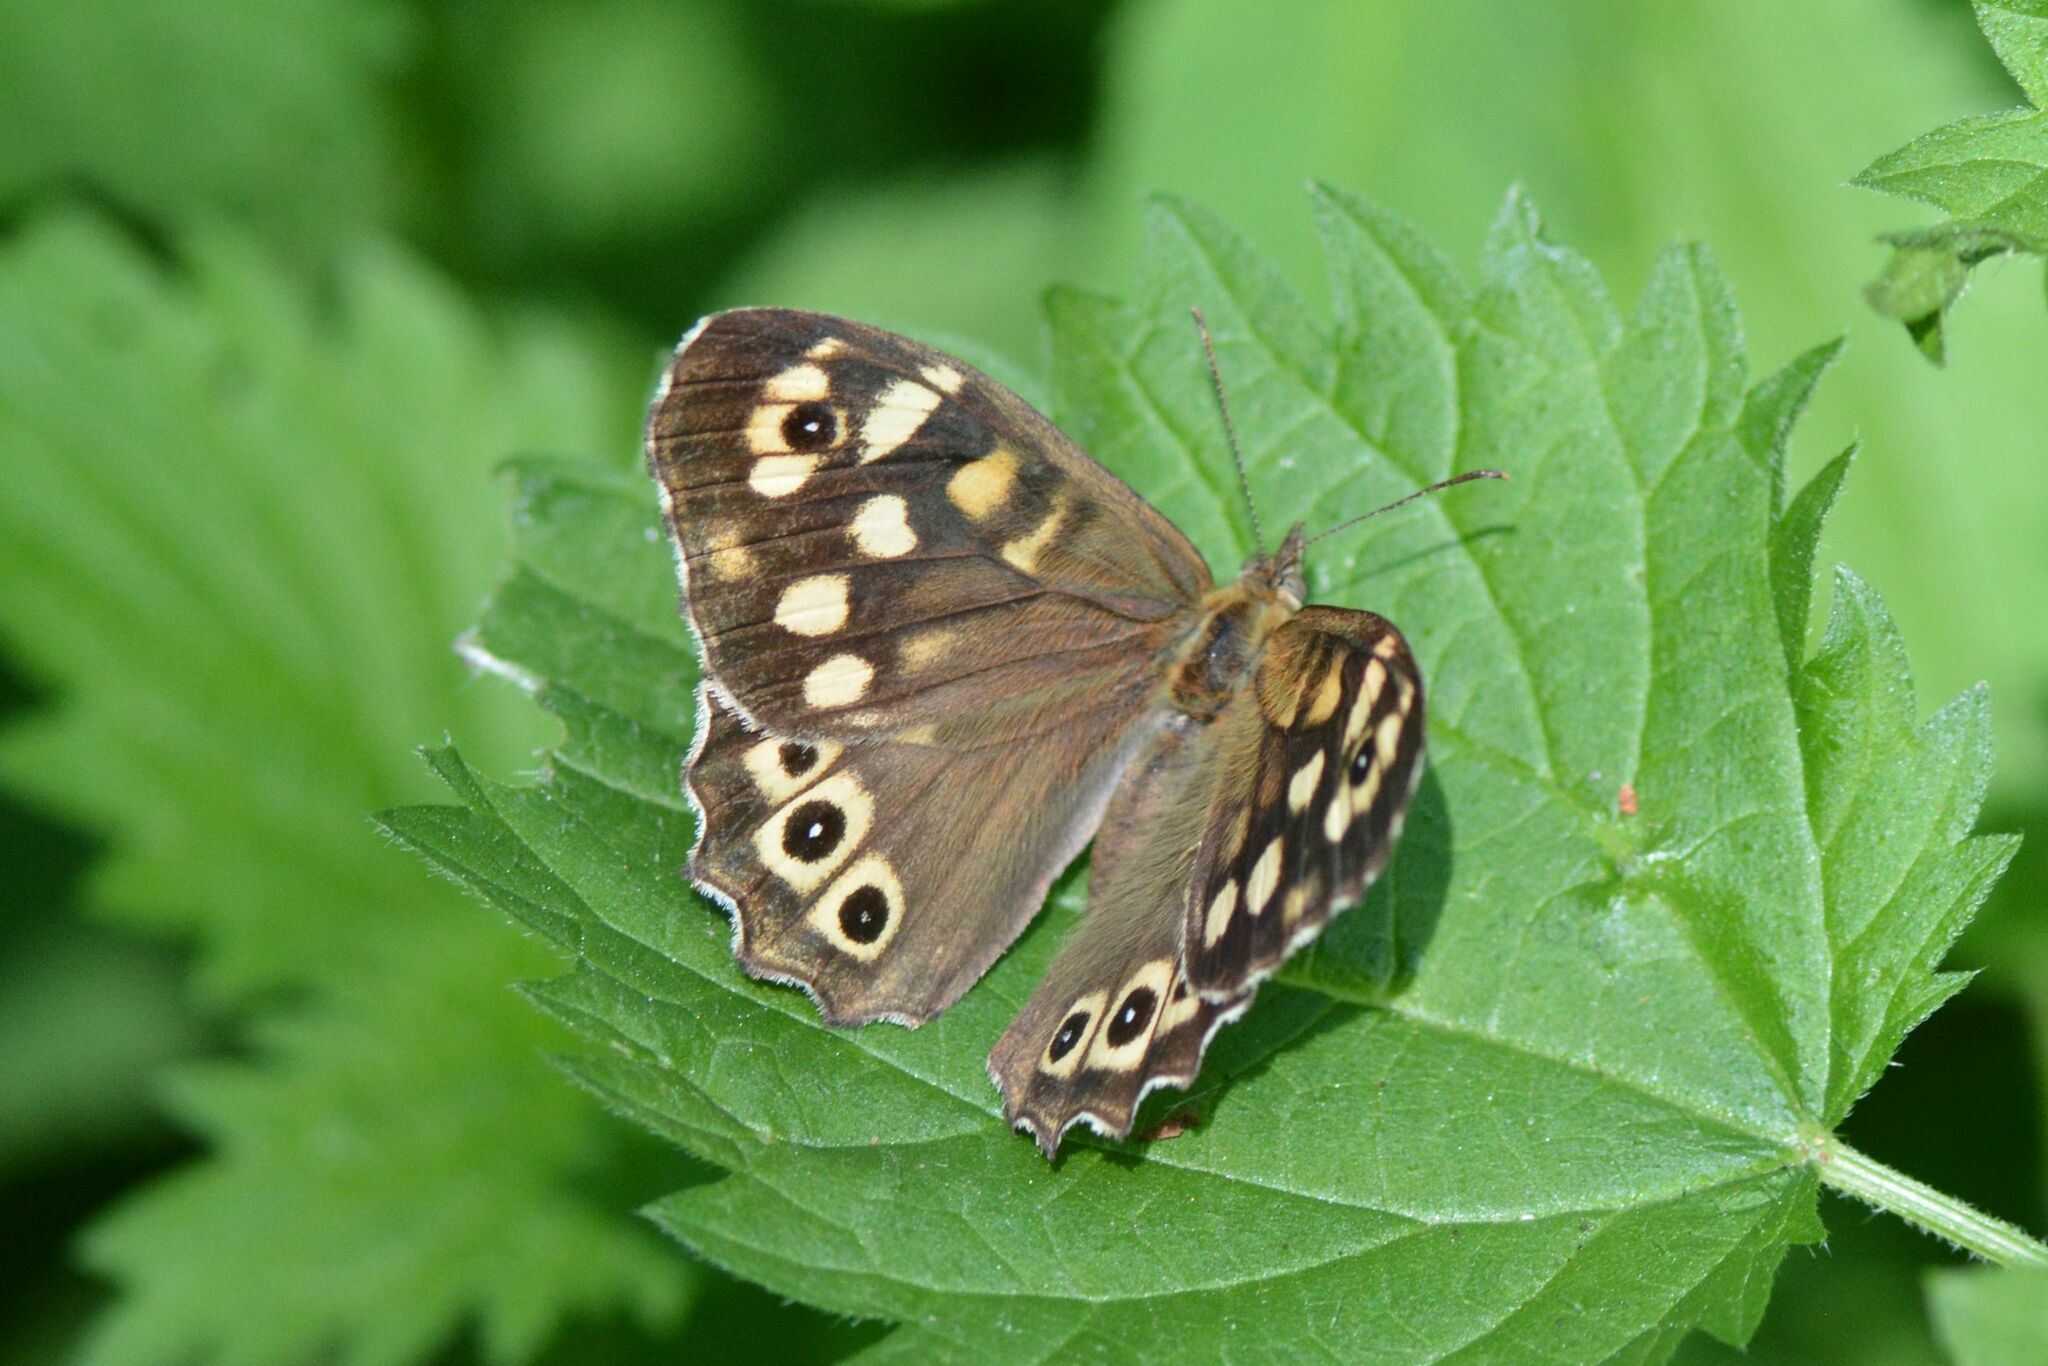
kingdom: Animalia
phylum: Arthropoda
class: Insecta
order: Lepidoptera
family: Nymphalidae
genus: Pararge
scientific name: Pararge aegeria
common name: Speckled wood
